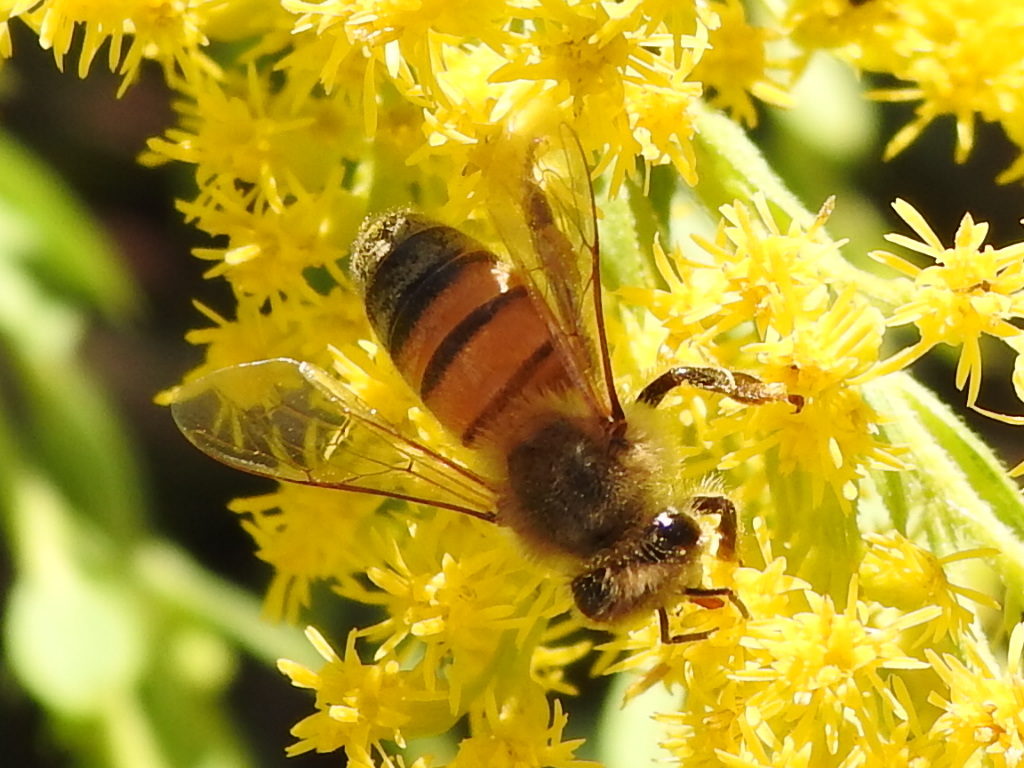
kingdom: Animalia
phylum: Arthropoda
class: Insecta
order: Hymenoptera
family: Apidae
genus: Apis
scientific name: Apis mellifera
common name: Honey bee
